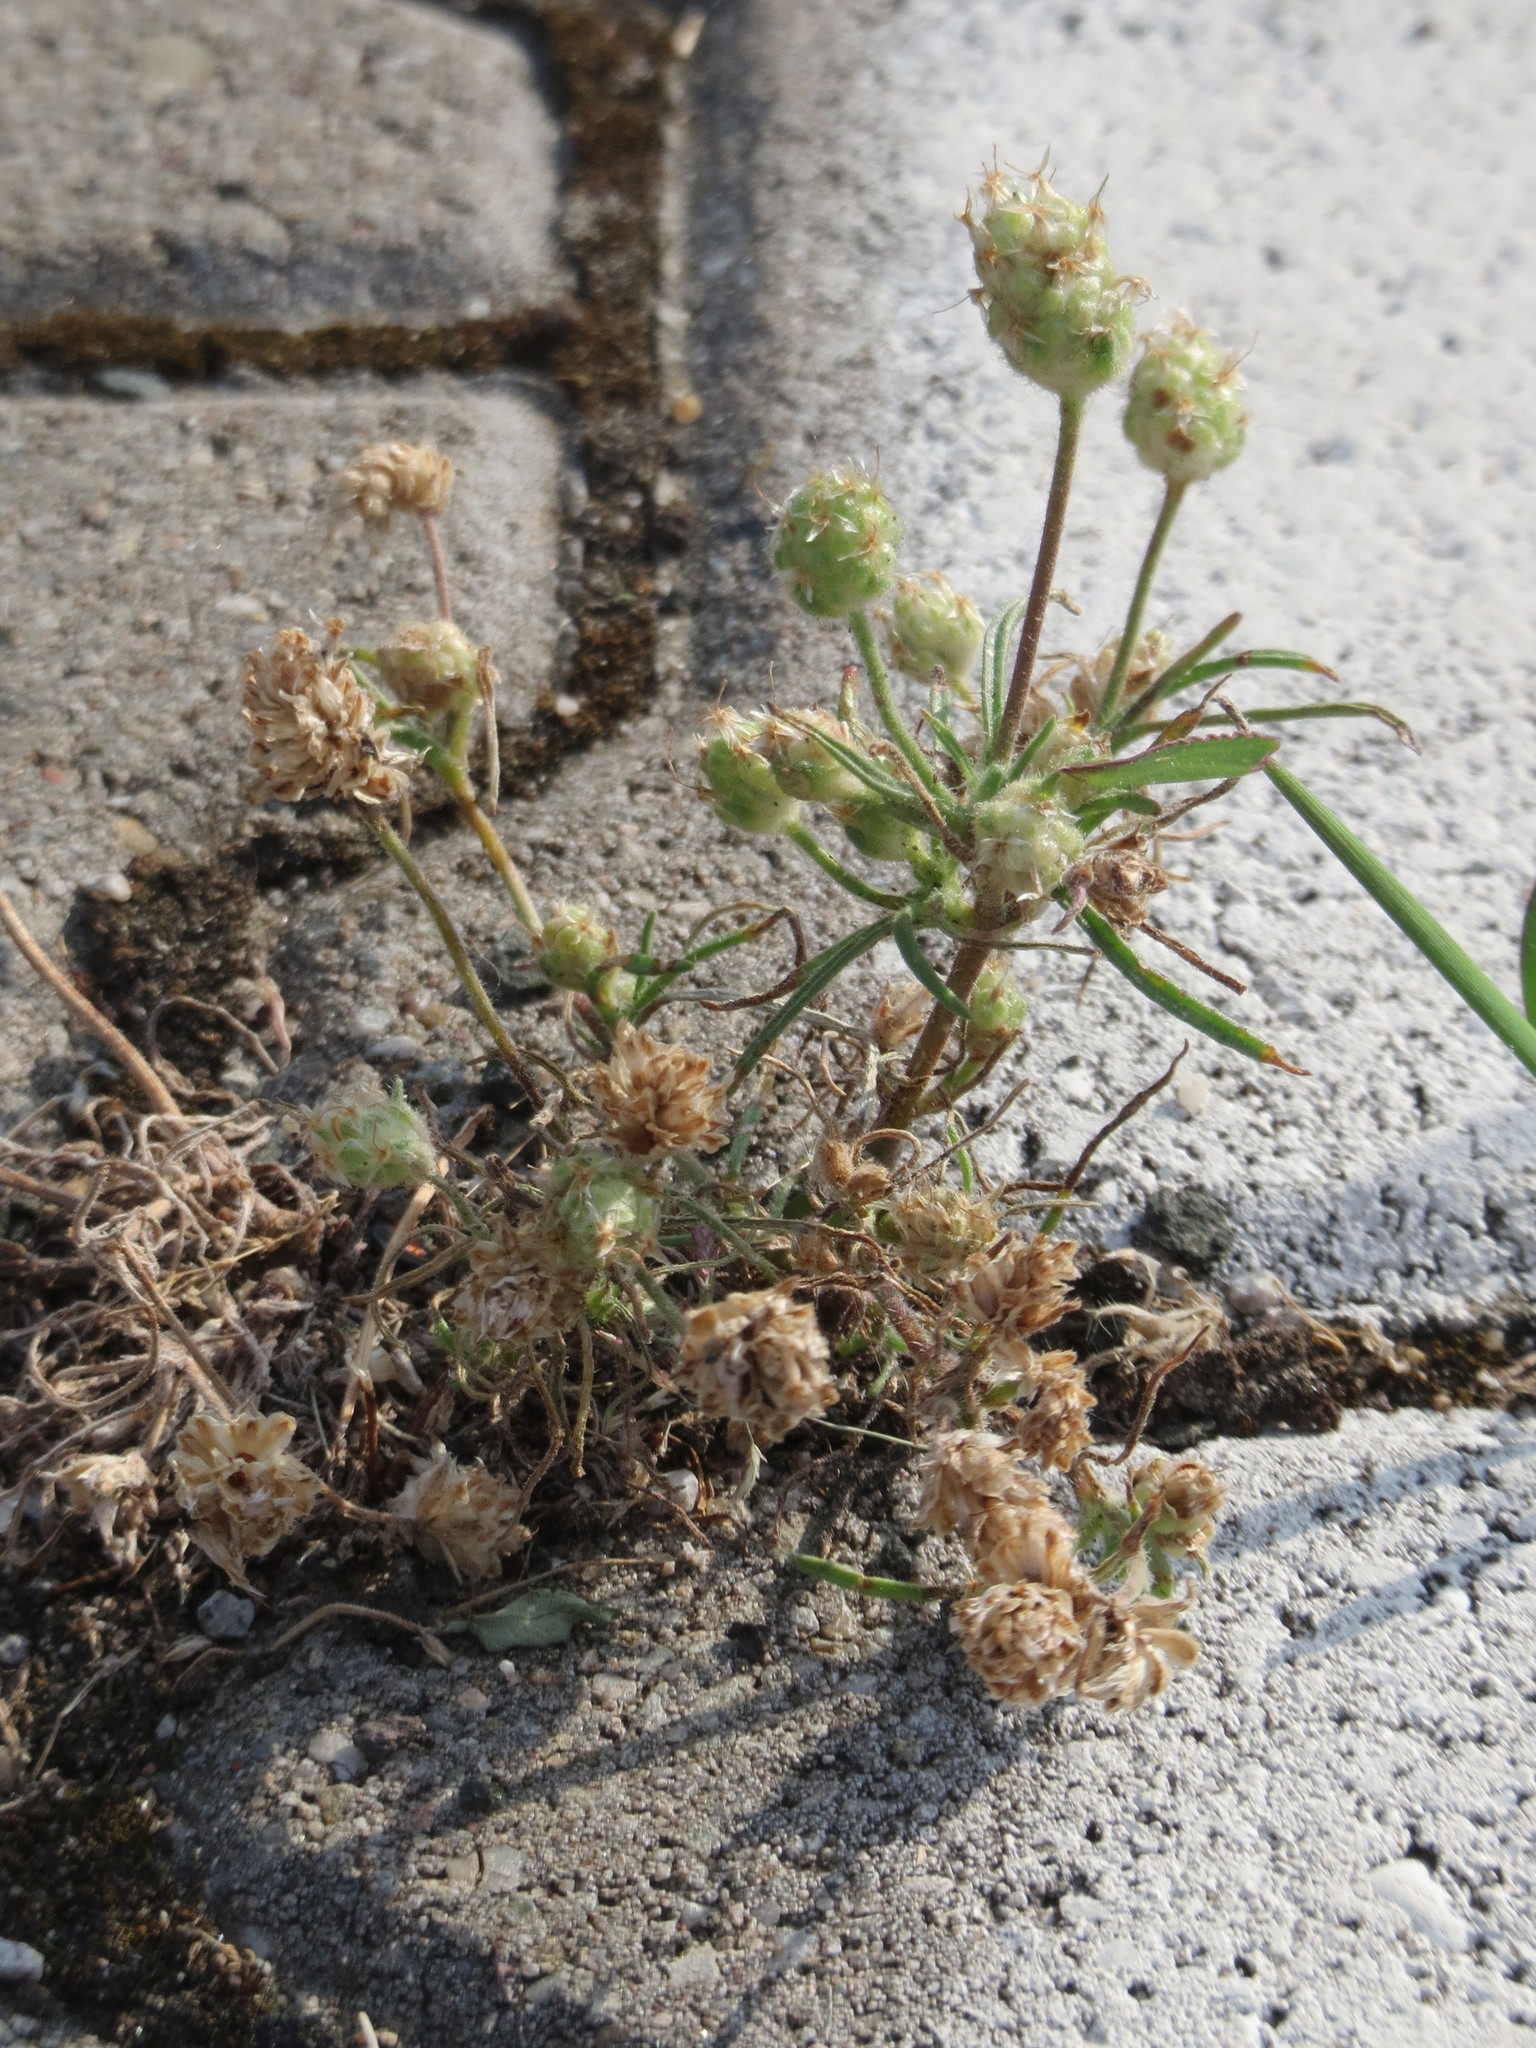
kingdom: Plantae
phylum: Tracheophyta
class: Magnoliopsida
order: Lamiales
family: Plantaginaceae
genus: Plantago
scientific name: Plantago arenaria
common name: Branched plantain
